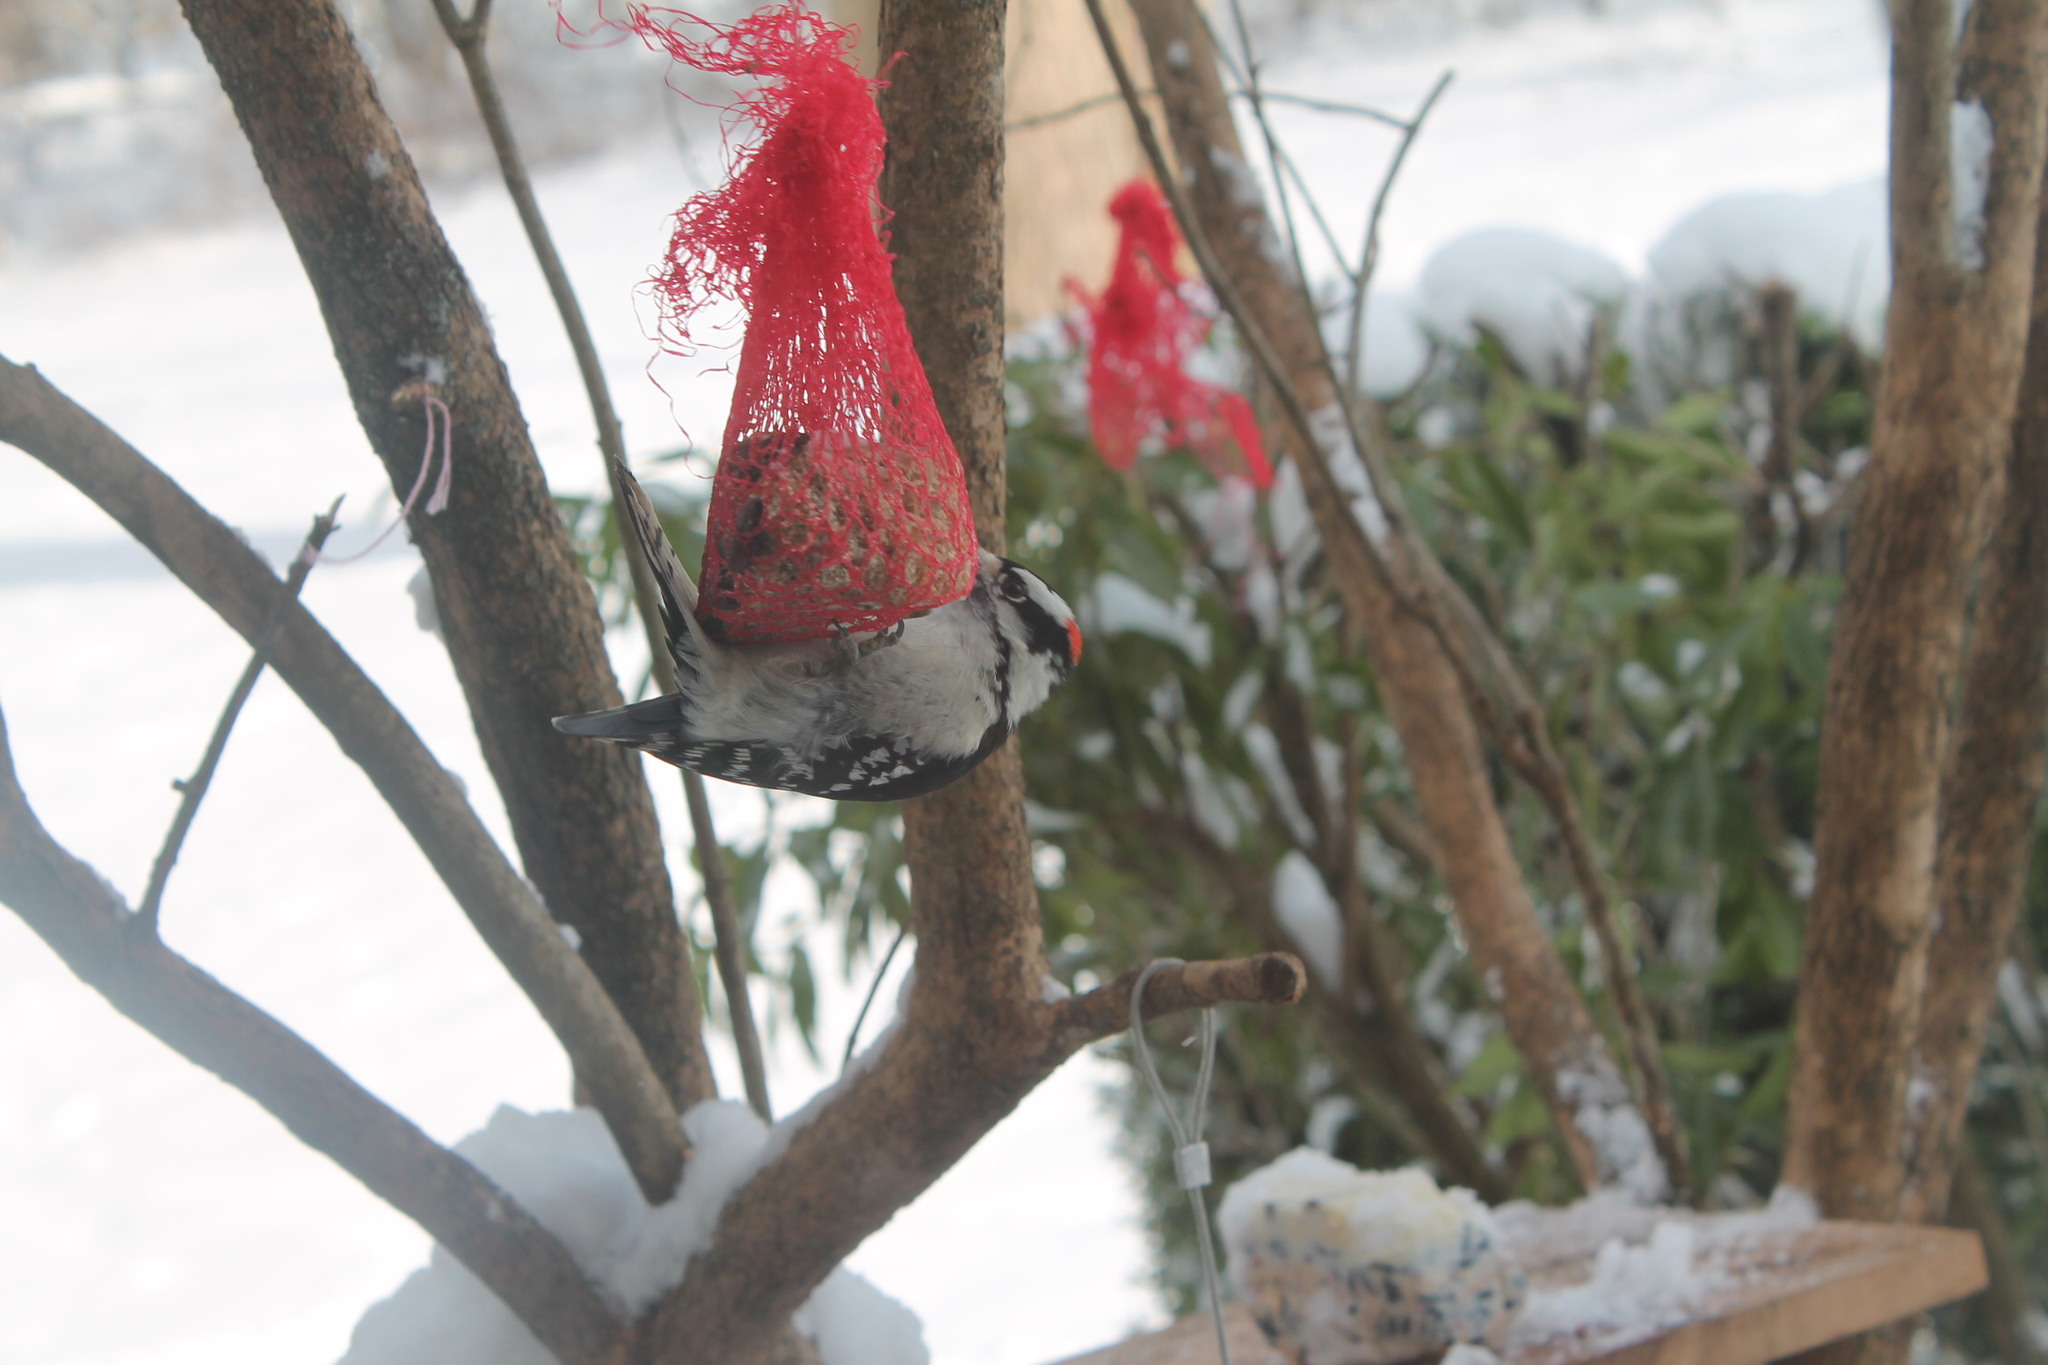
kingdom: Animalia
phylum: Chordata
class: Aves
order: Piciformes
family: Picidae
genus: Dryobates
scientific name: Dryobates pubescens
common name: Downy woodpecker
